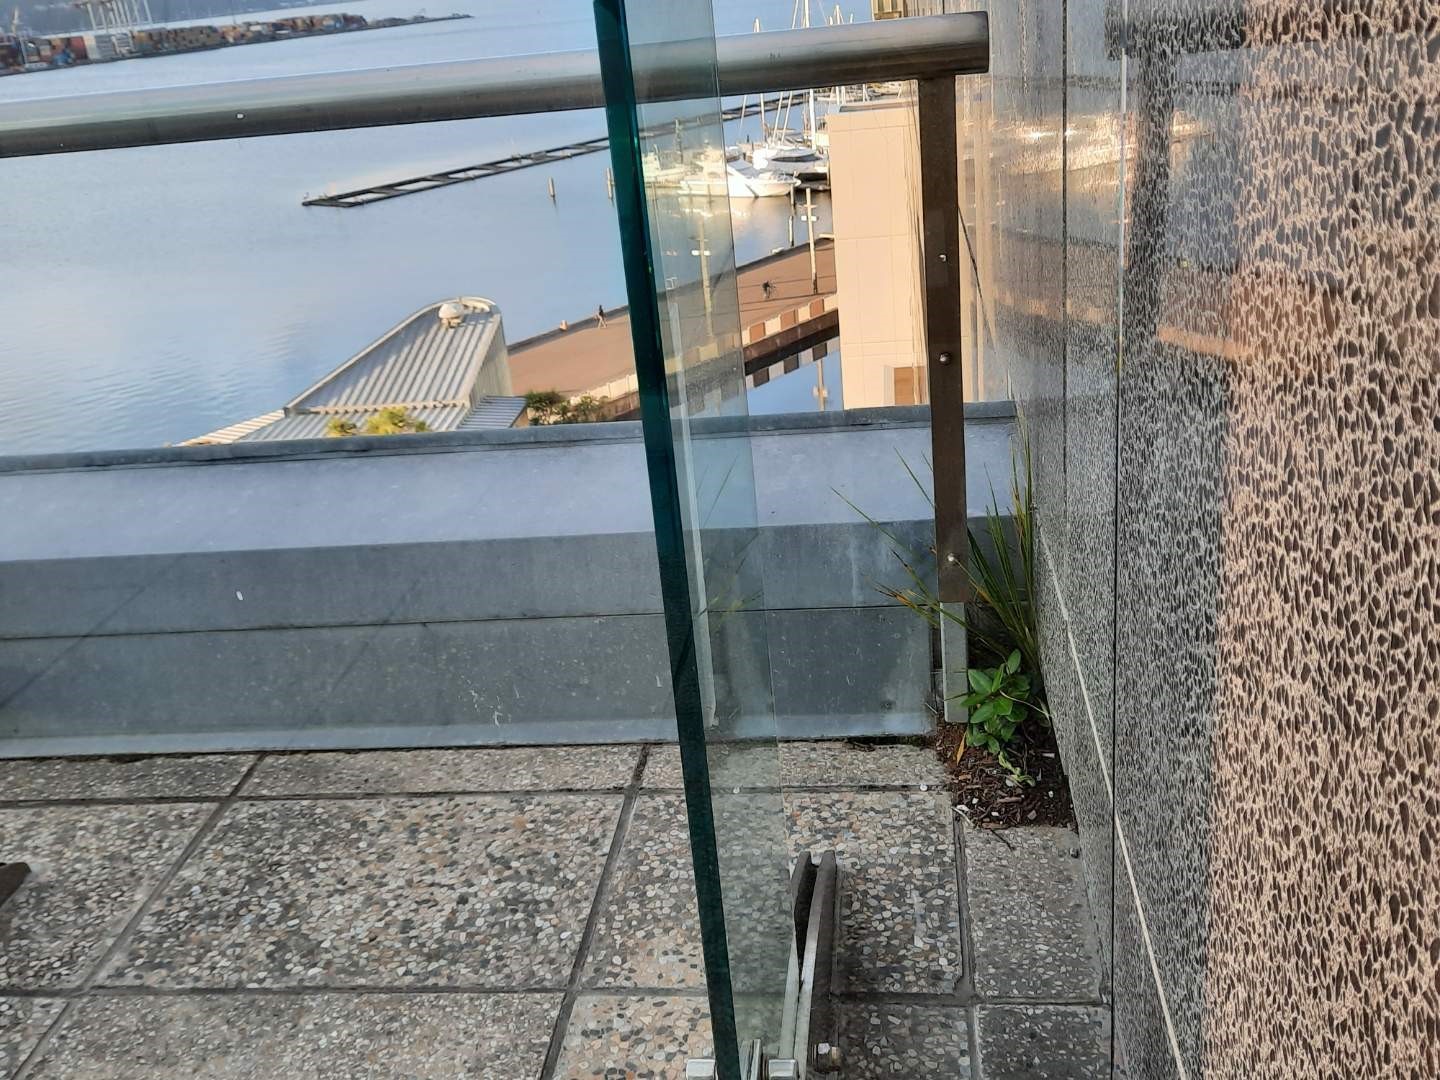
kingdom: Plantae
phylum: Tracheophyta
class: Liliopsida
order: Asparagales
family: Asparagaceae
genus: Cordyline
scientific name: Cordyline australis
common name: Cabbage-palm
